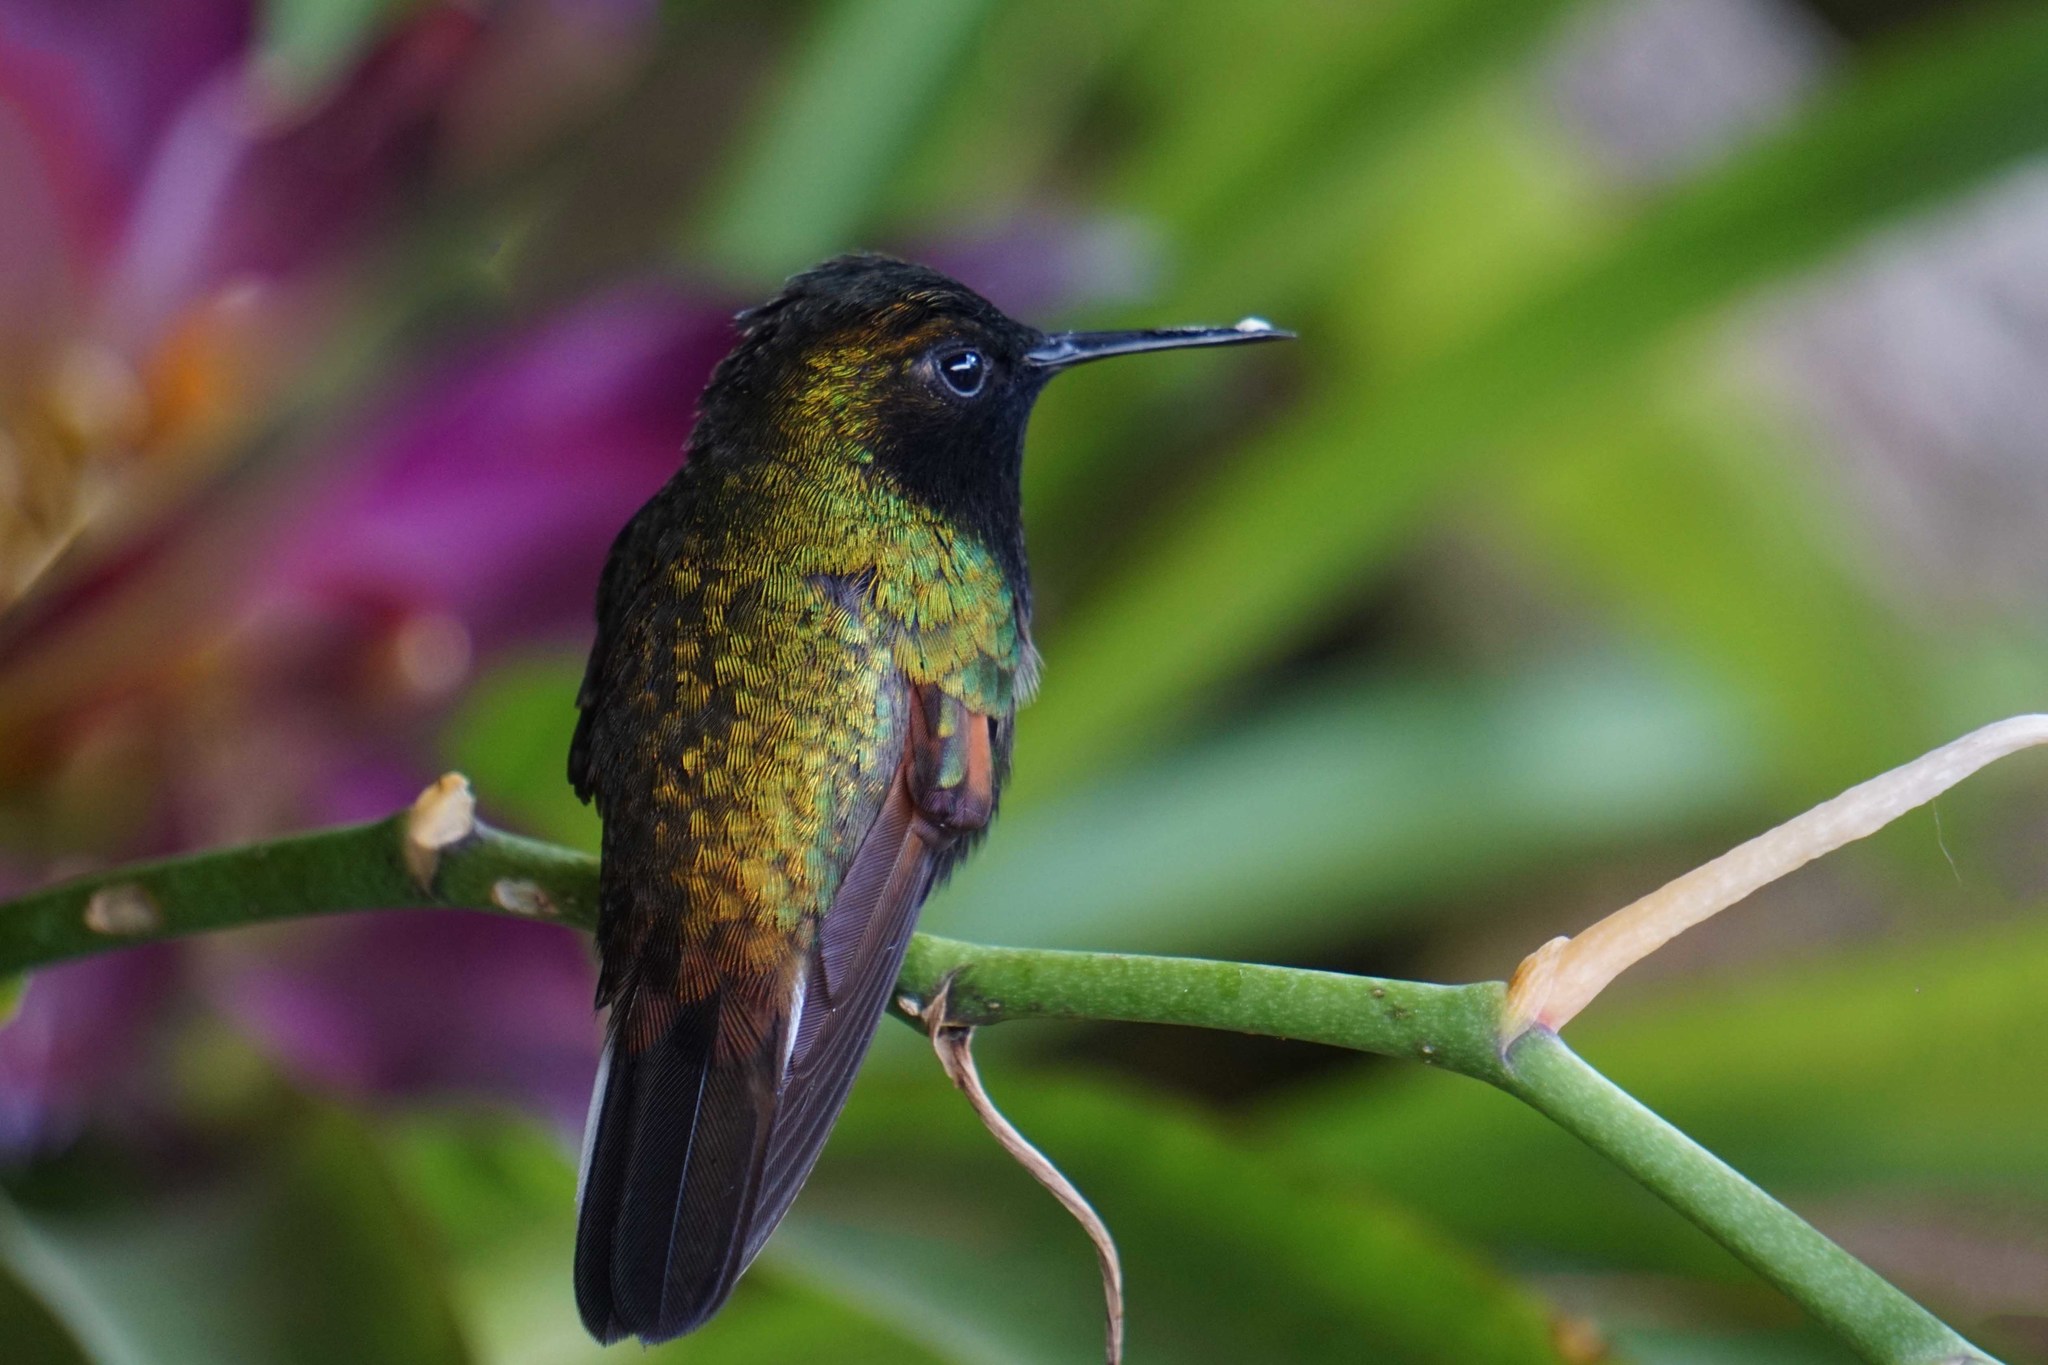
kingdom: Animalia
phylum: Chordata
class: Aves
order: Apodiformes
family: Trochilidae
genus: Eupherusa
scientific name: Eupherusa nigriventris
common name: Black-bellied hummingbird
